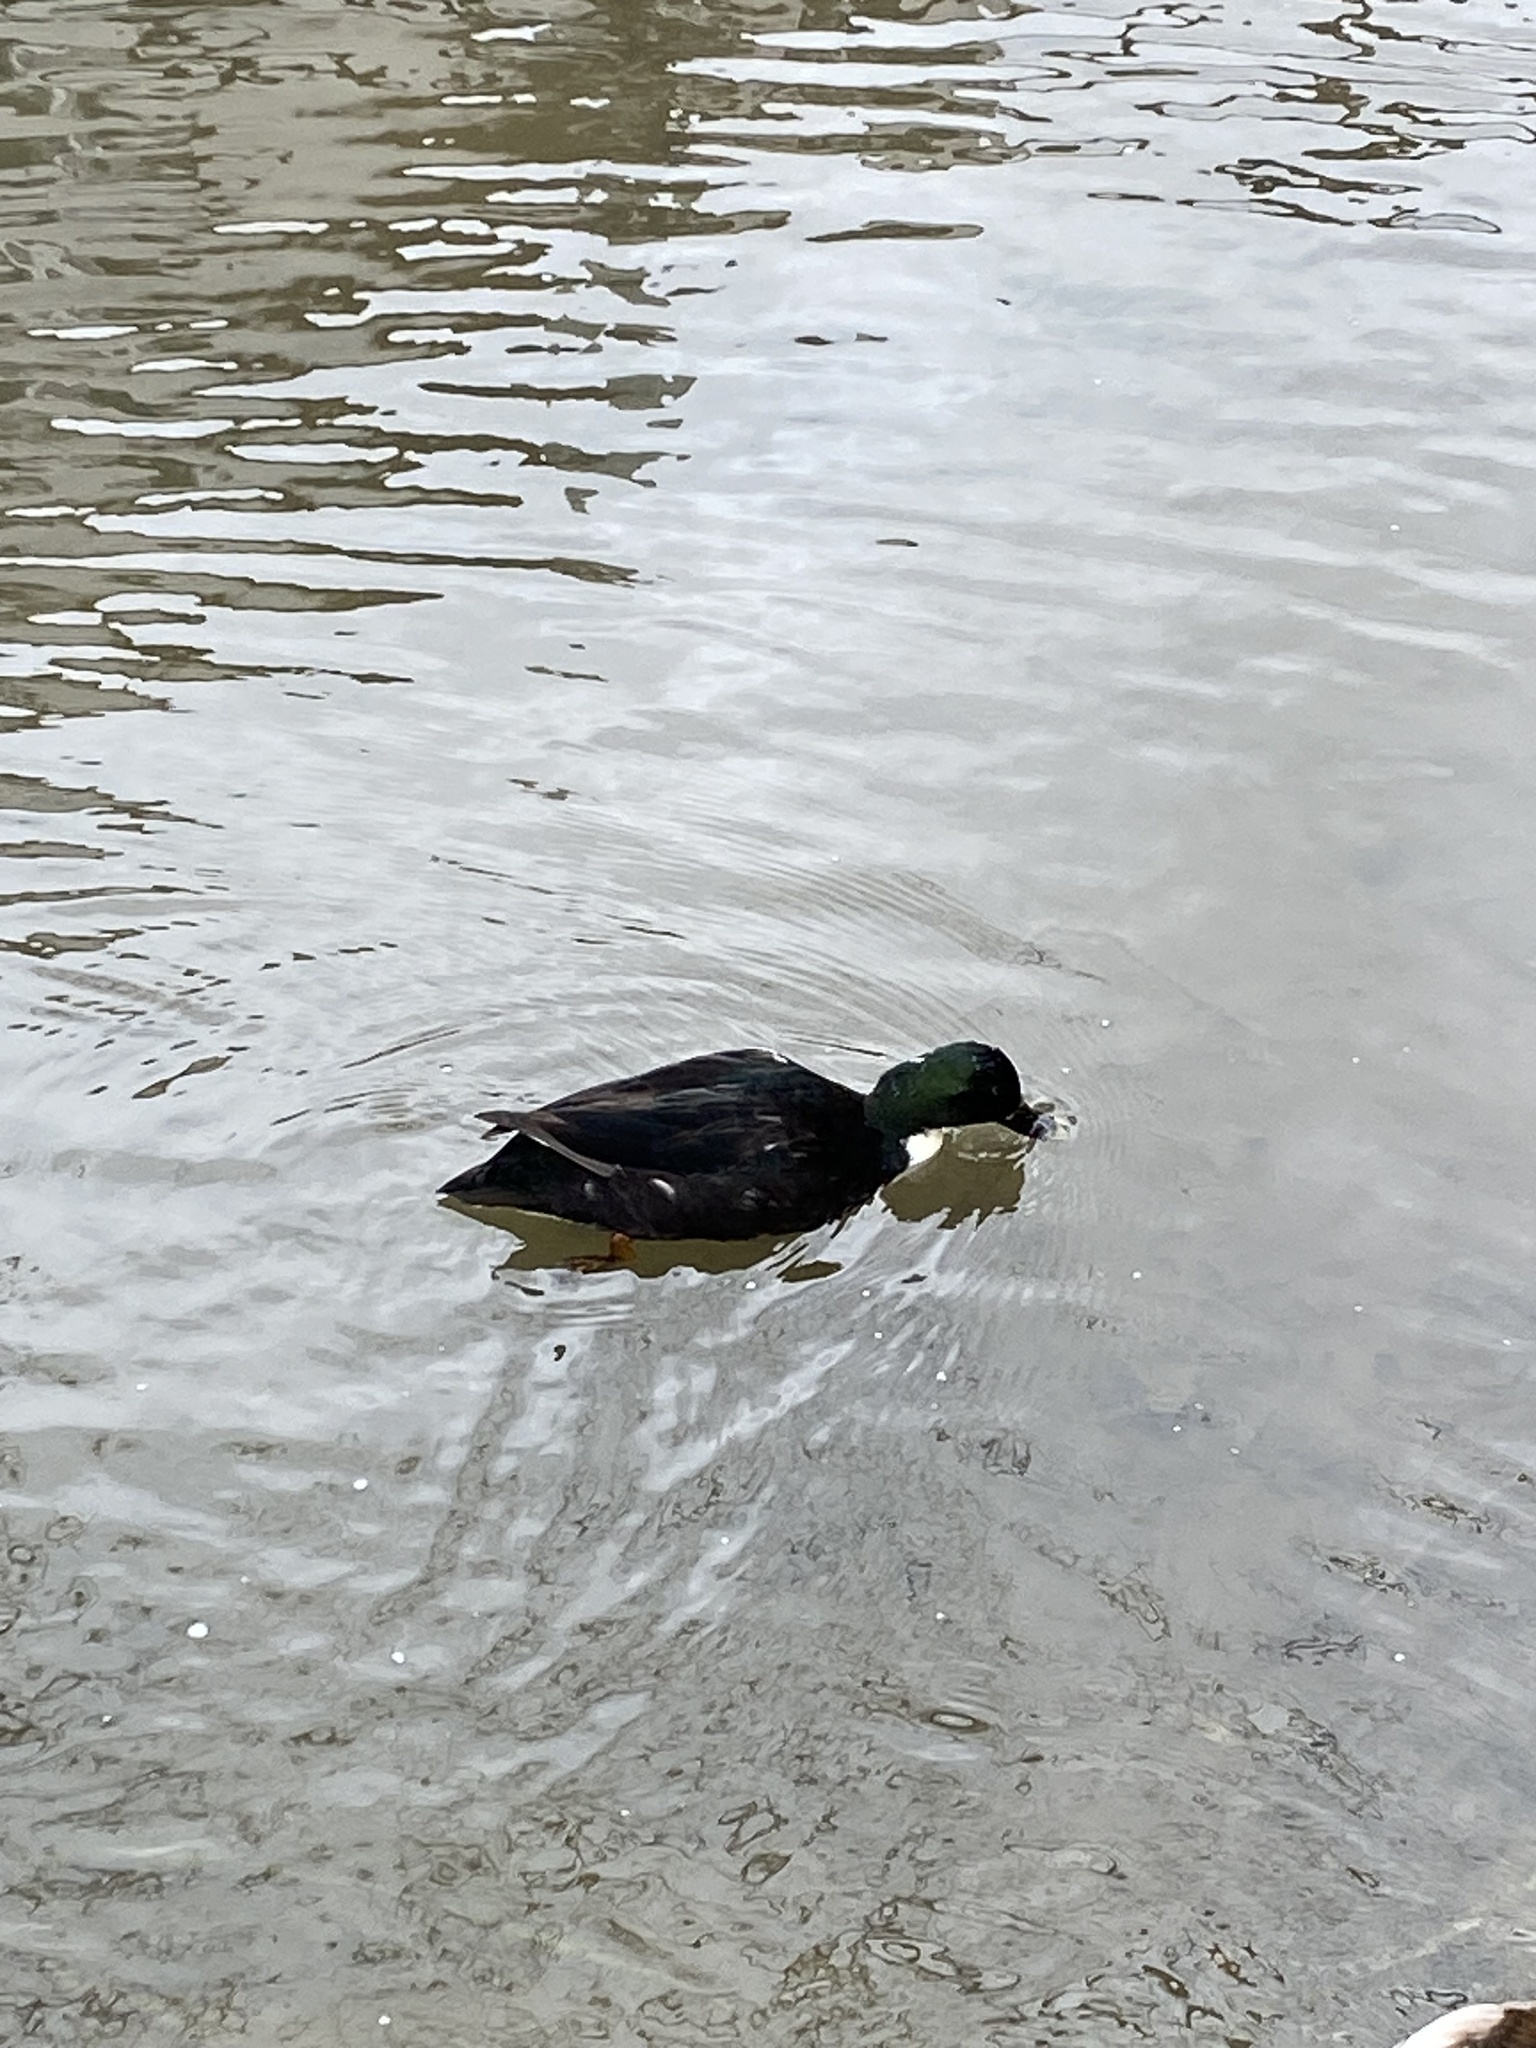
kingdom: Animalia
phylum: Chordata
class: Aves
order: Anseriformes
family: Anatidae
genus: Anas
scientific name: Anas platyrhynchos
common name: Mallard
